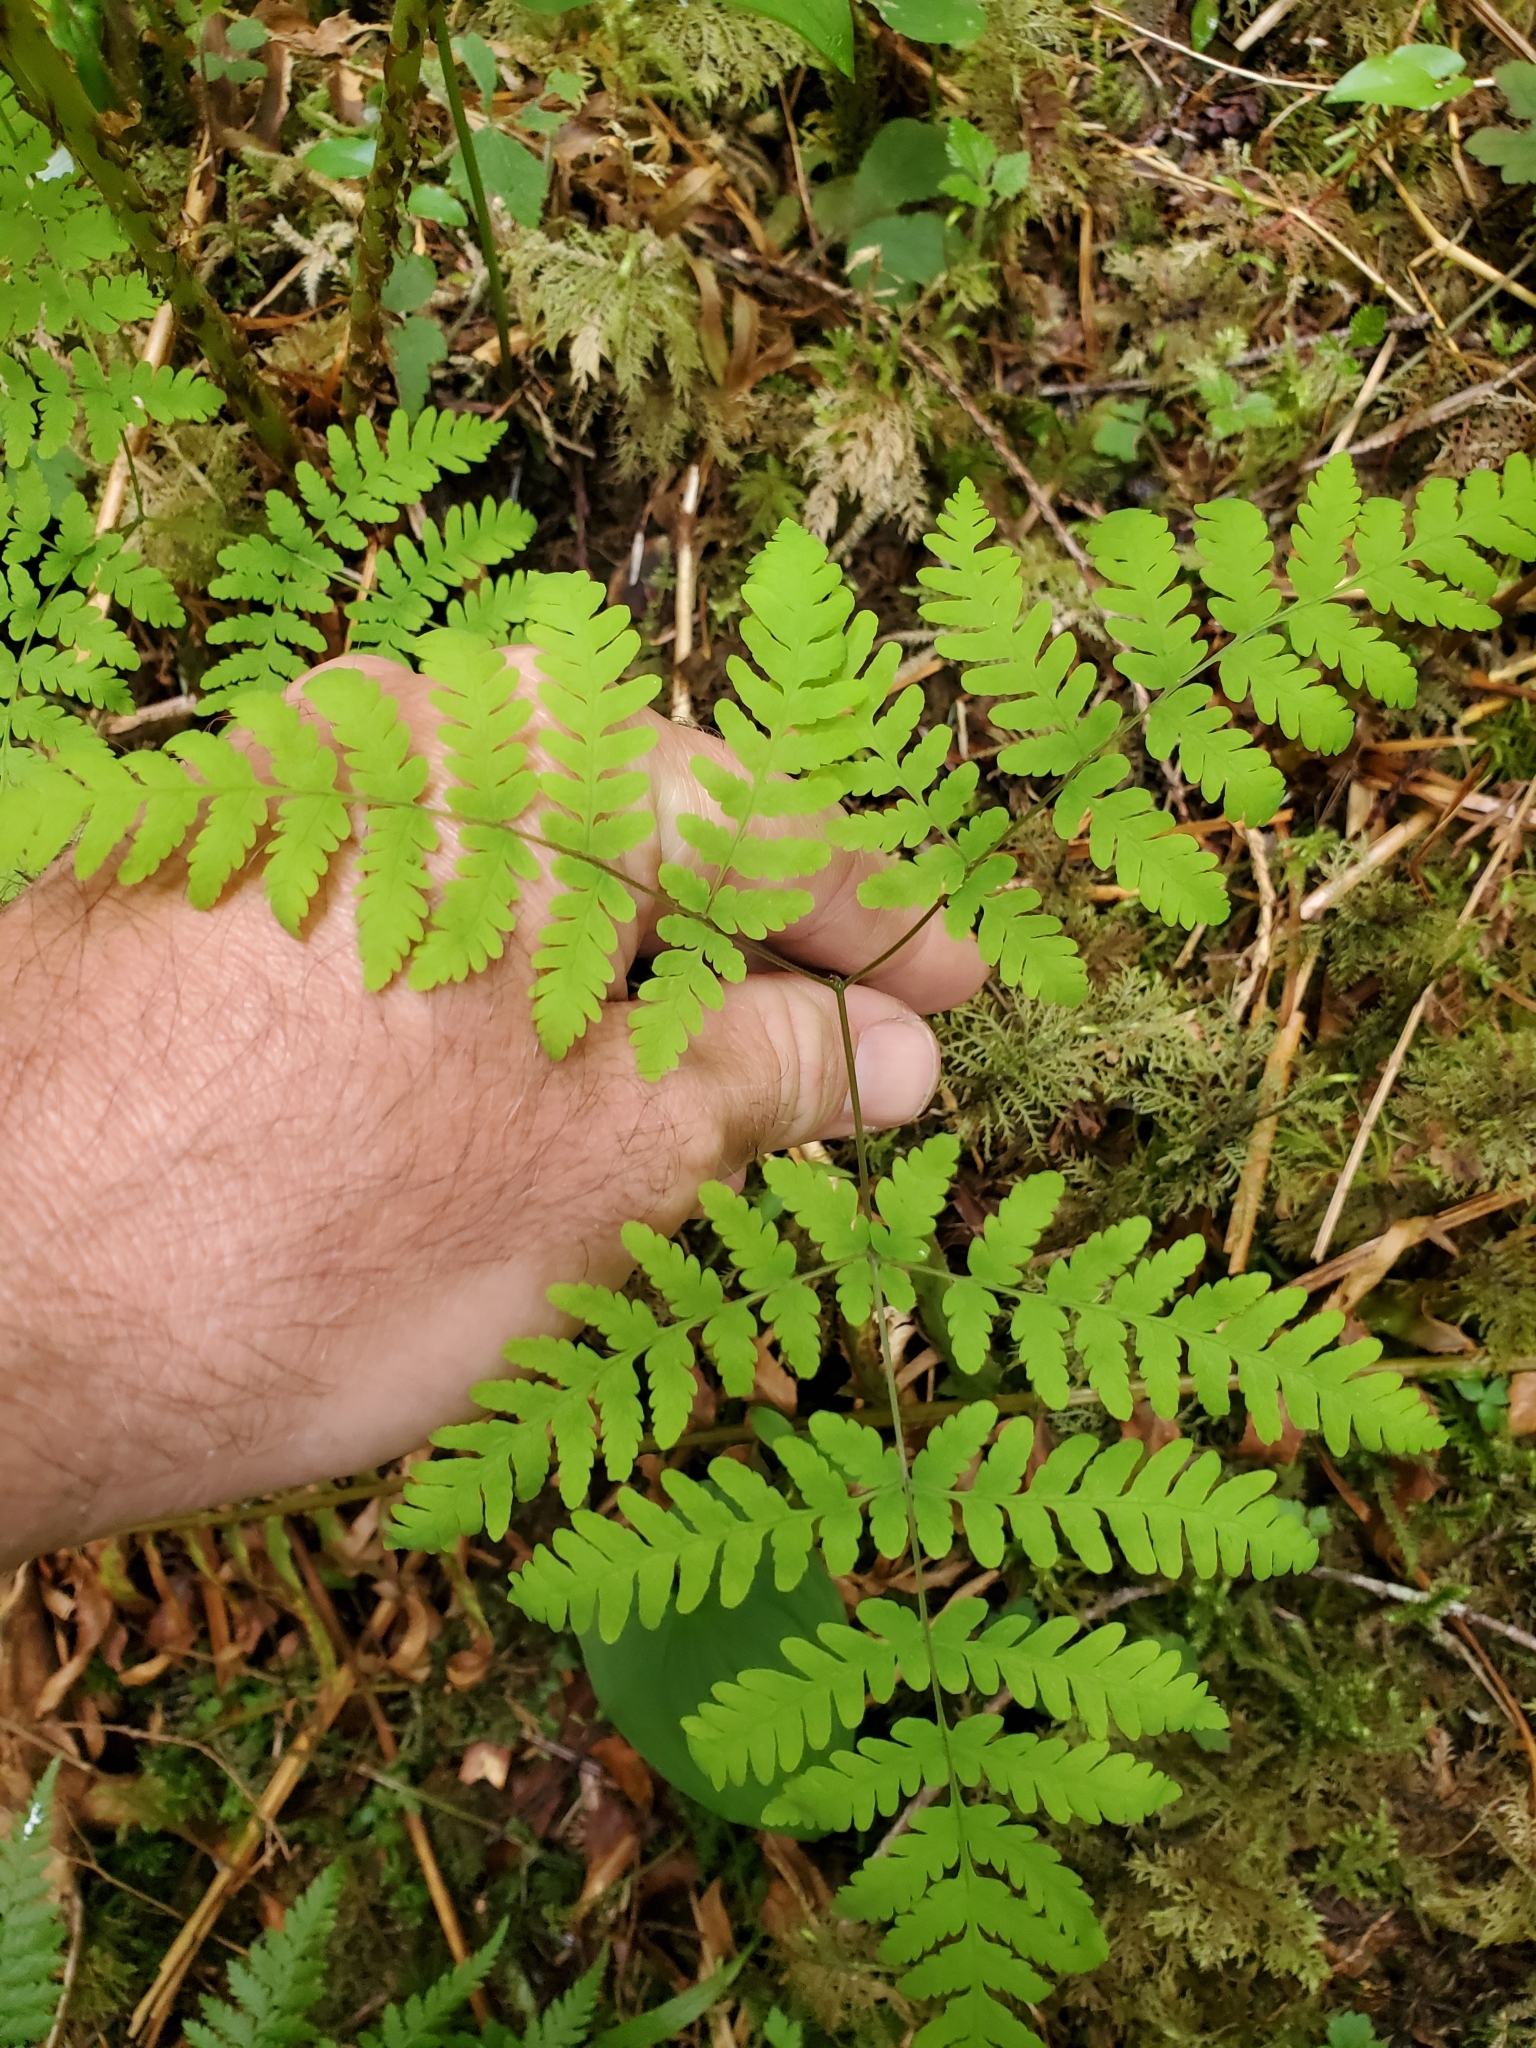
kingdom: Plantae
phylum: Tracheophyta
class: Polypodiopsida
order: Polypodiales
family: Cystopteridaceae
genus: Gymnocarpium
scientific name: Gymnocarpium disjunctum
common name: Western oak fern
